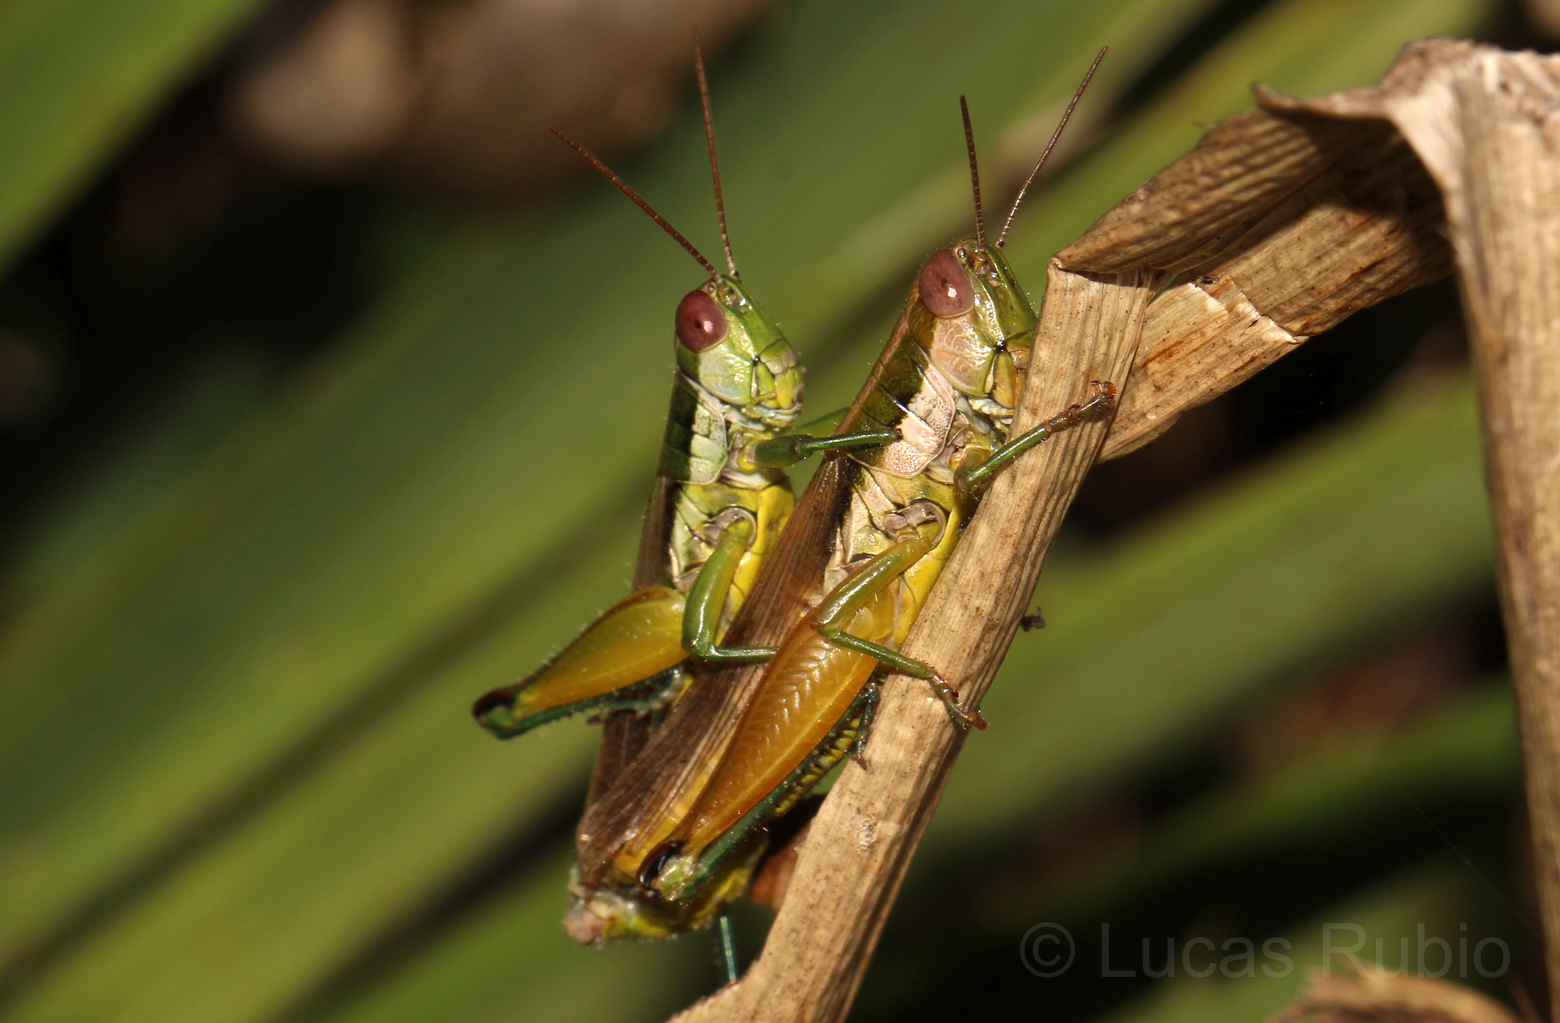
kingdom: Animalia
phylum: Arthropoda
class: Insecta
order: Orthoptera
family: Acrididae
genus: Scotussa
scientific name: Scotussa liebermanni
